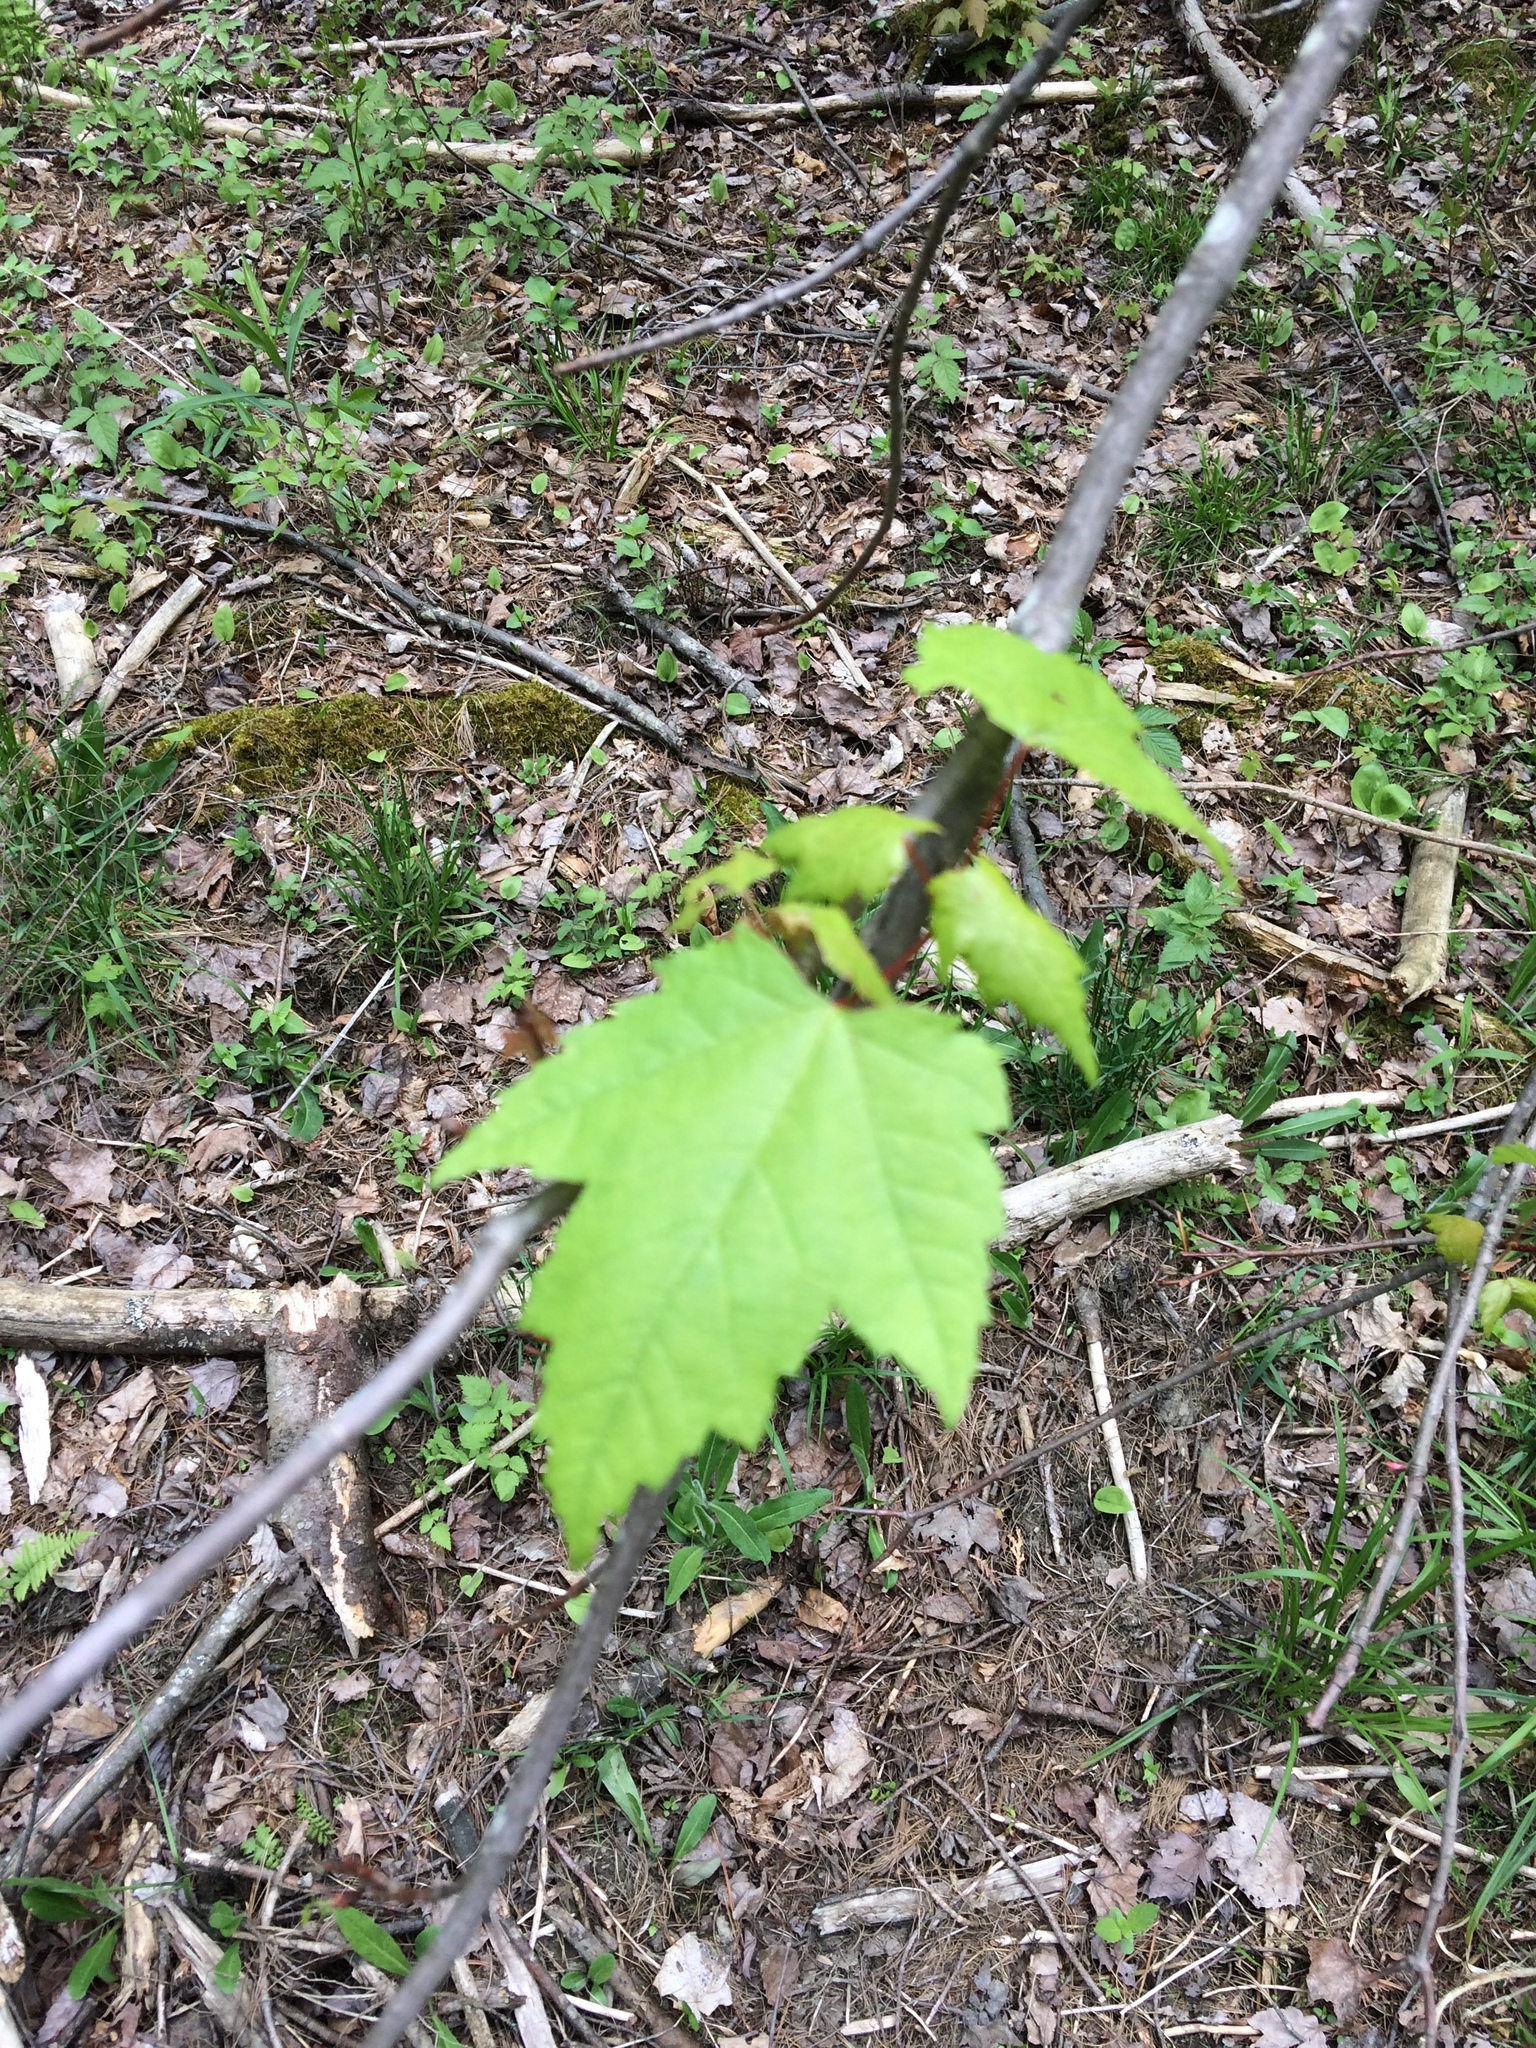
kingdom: Plantae
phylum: Tracheophyta
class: Magnoliopsida
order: Sapindales
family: Sapindaceae
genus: Acer
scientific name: Acer rubrum
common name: Red maple
